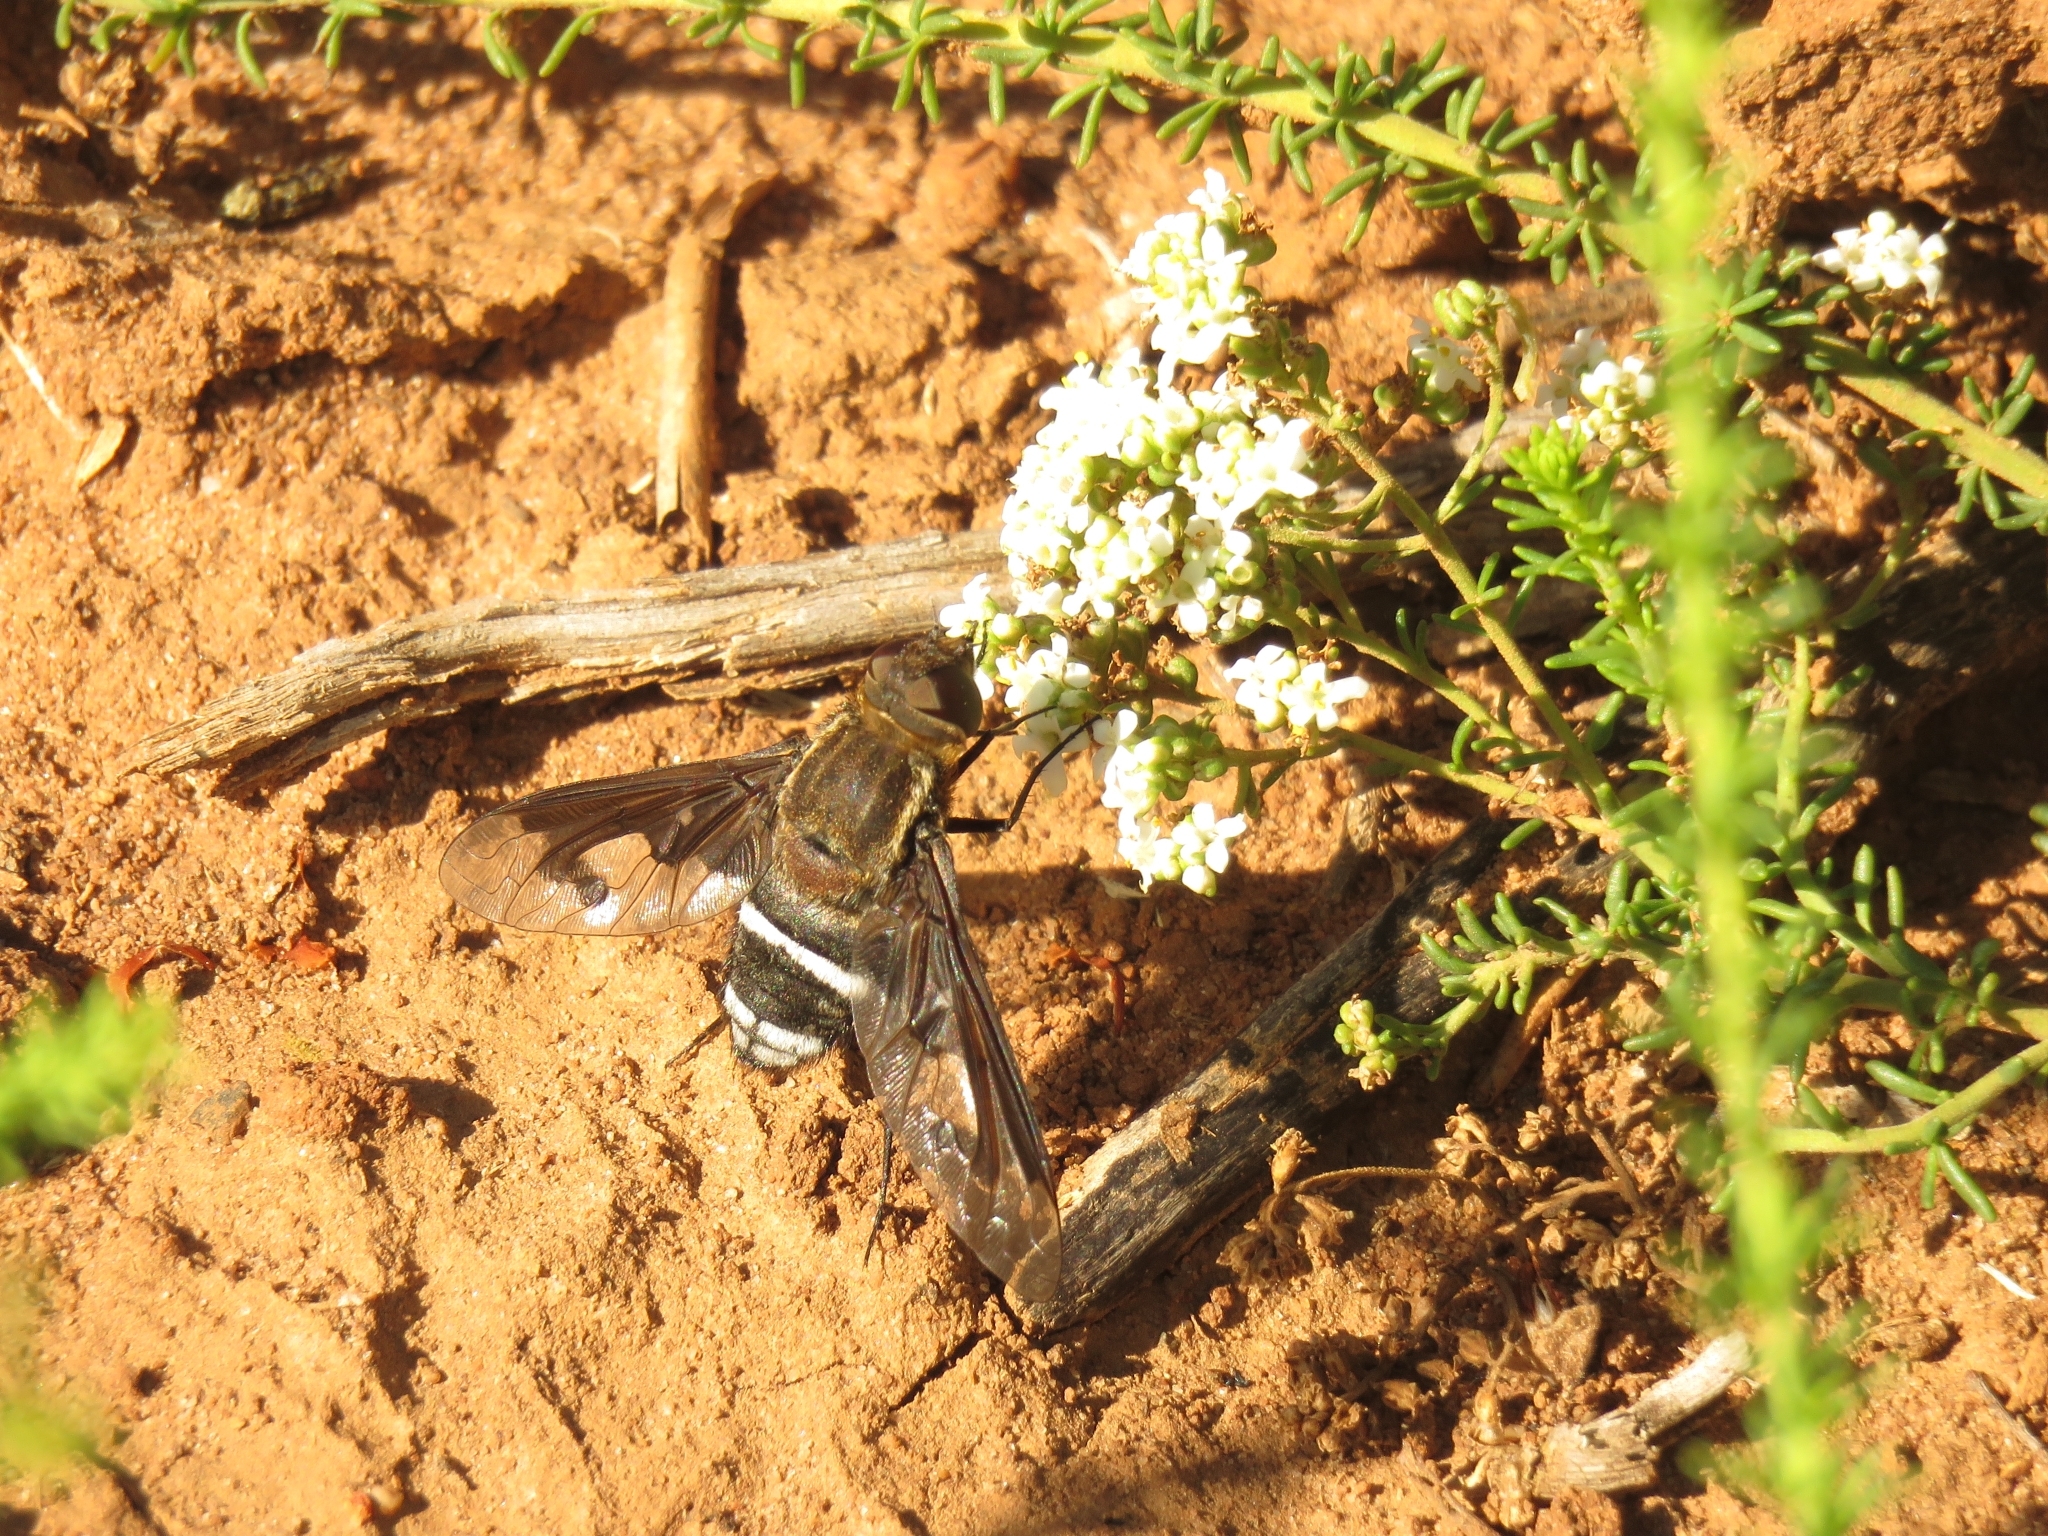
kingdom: Animalia
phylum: Arthropoda
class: Insecta
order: Diptera
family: Bombyliidae
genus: Exoprosopa
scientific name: Exoprosopa dux
